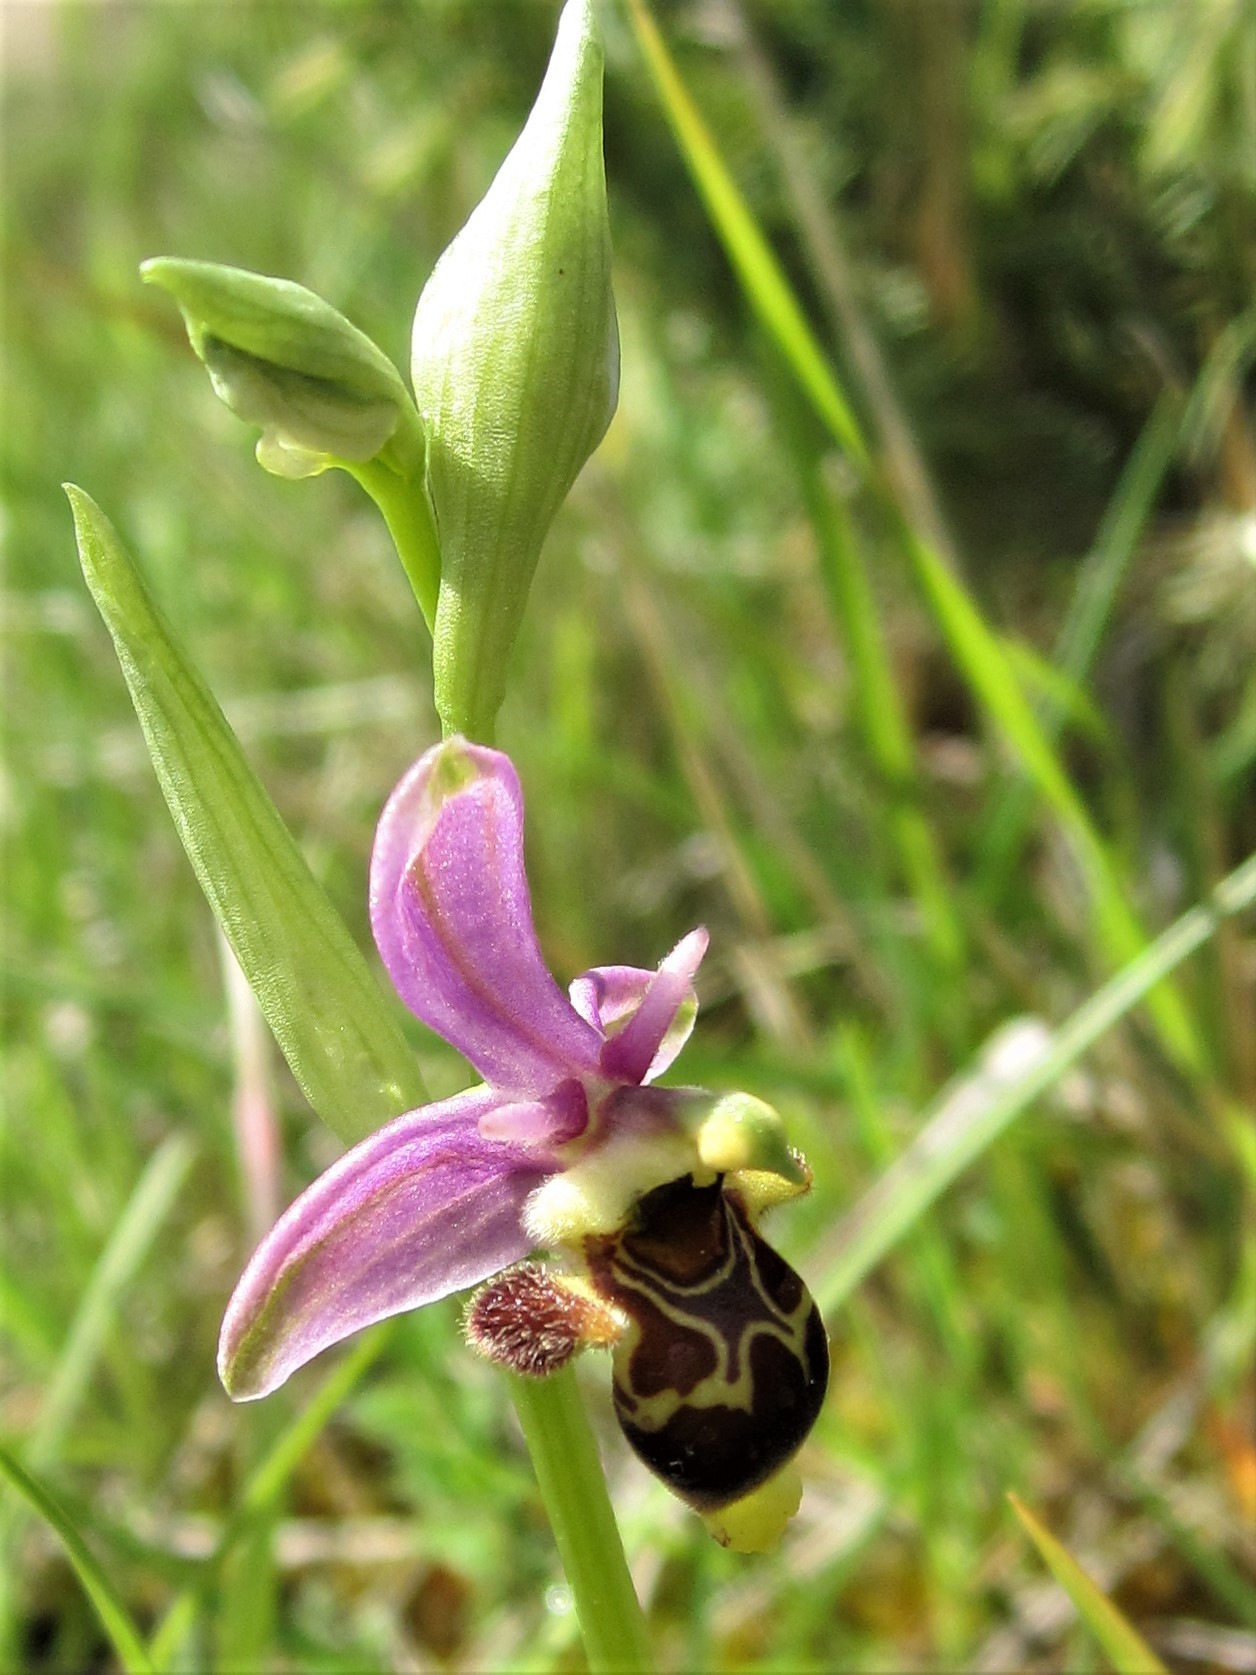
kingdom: Plantae
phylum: Tracheophyta
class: Liliopsida
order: Asparagales
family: Orchidaceae
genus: Ophrys
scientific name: Ophrys scolopax
